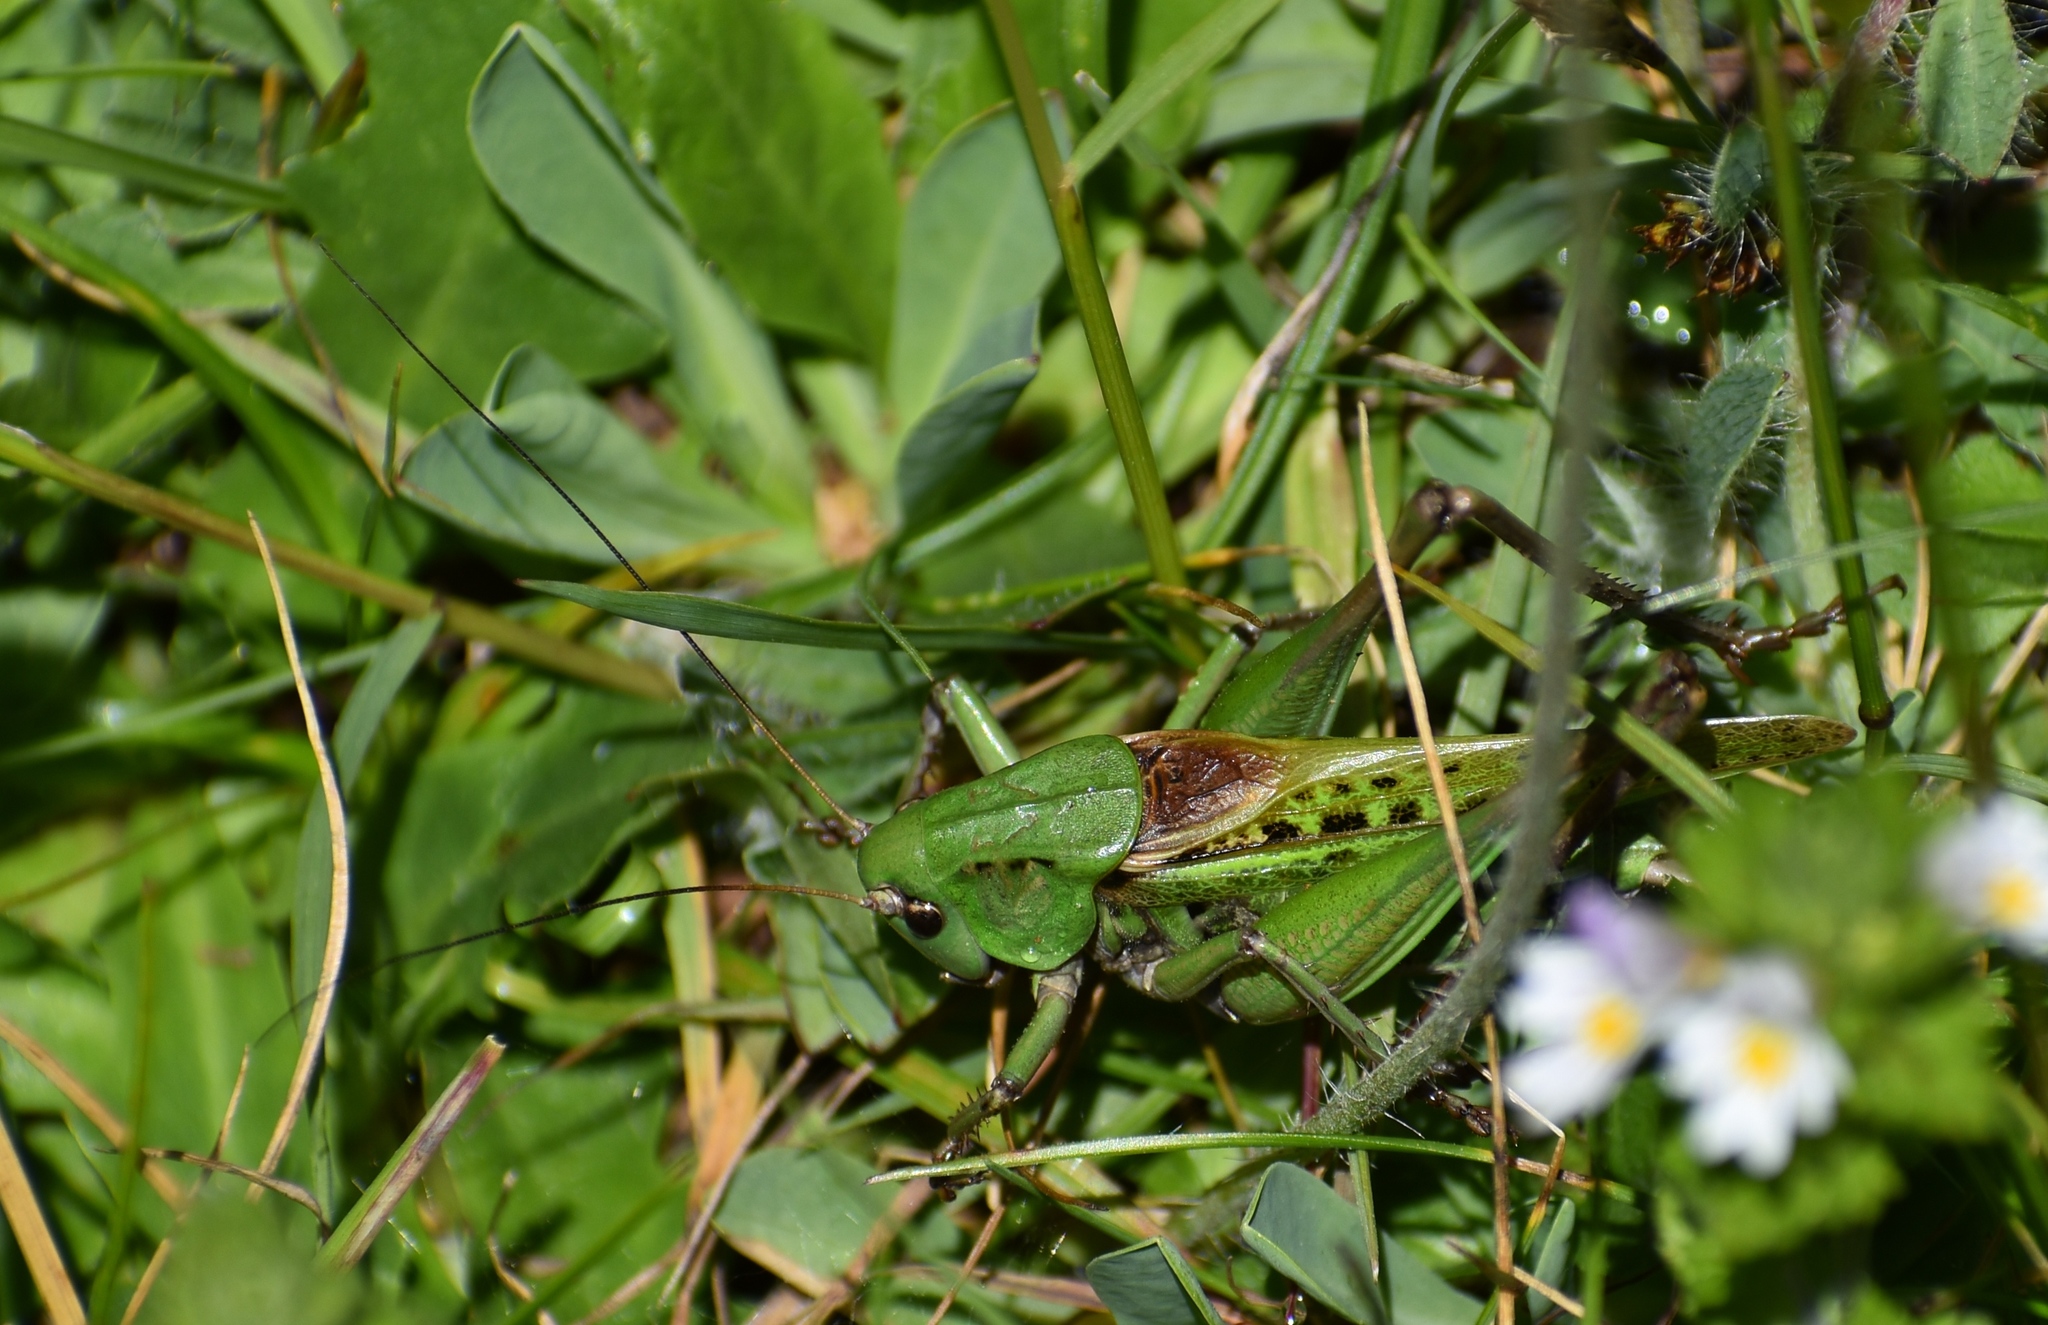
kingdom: Animalia
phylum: Arthropoda
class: Insecta
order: Orthoptera
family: Tettigoniidae
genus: Decticus
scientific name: Decticus verrucivorus
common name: Wart-biter
